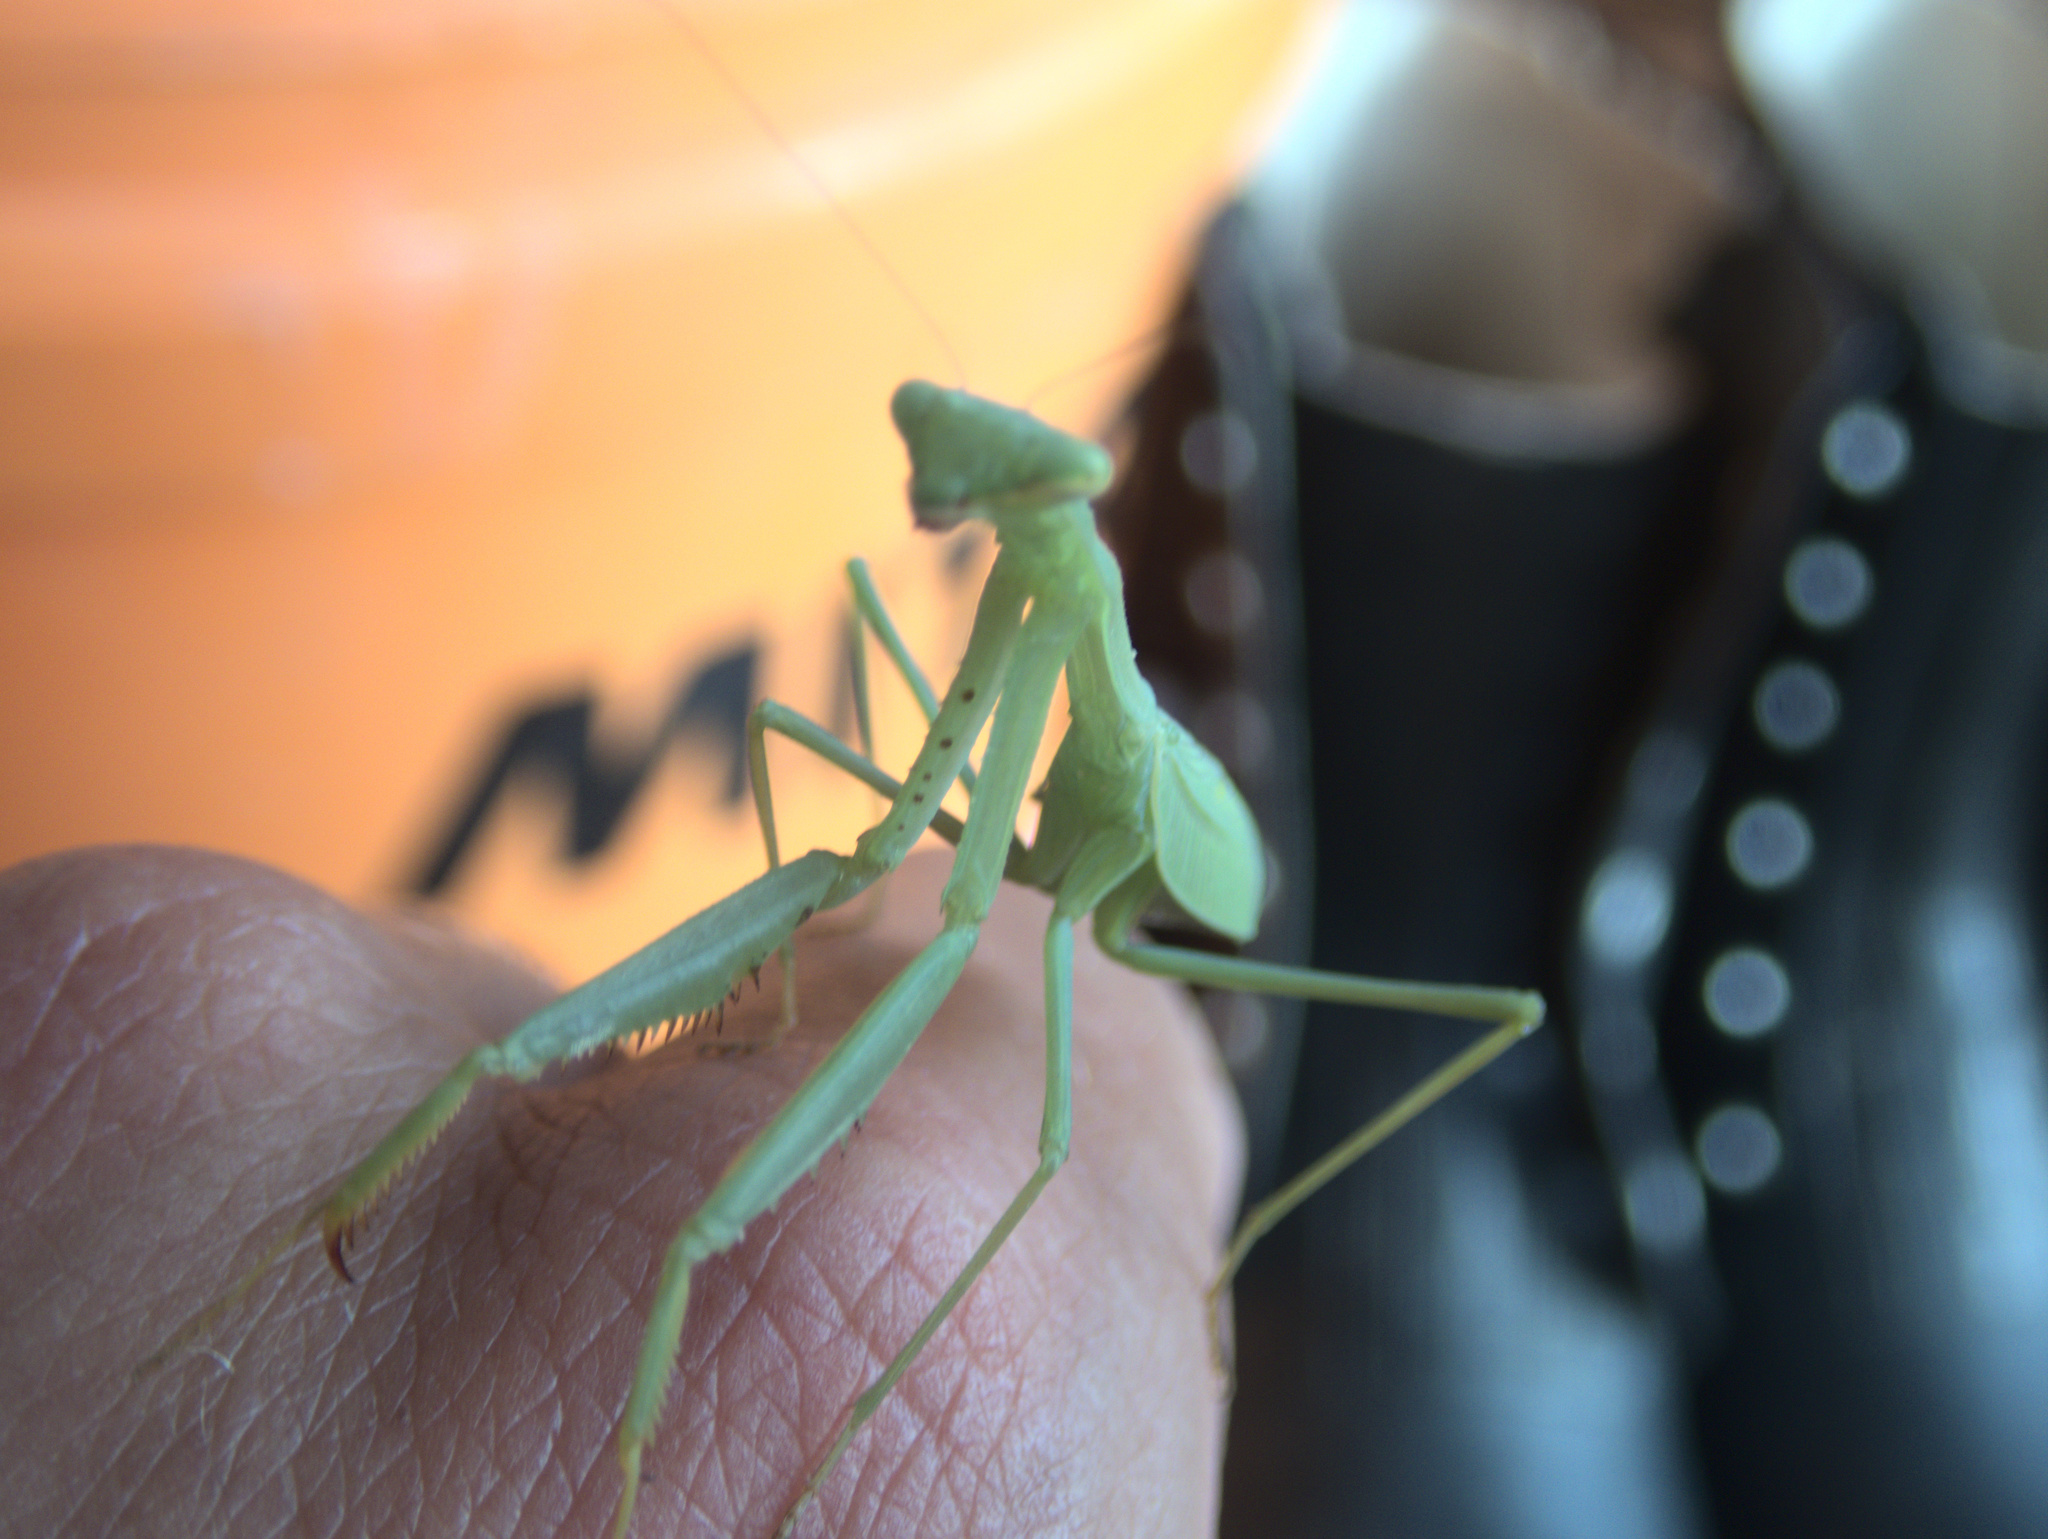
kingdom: Animalia
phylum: Arthropoda
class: Insecta
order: Mantodea
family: Miomantidae
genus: Miomantis
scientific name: Miomantis caffra
